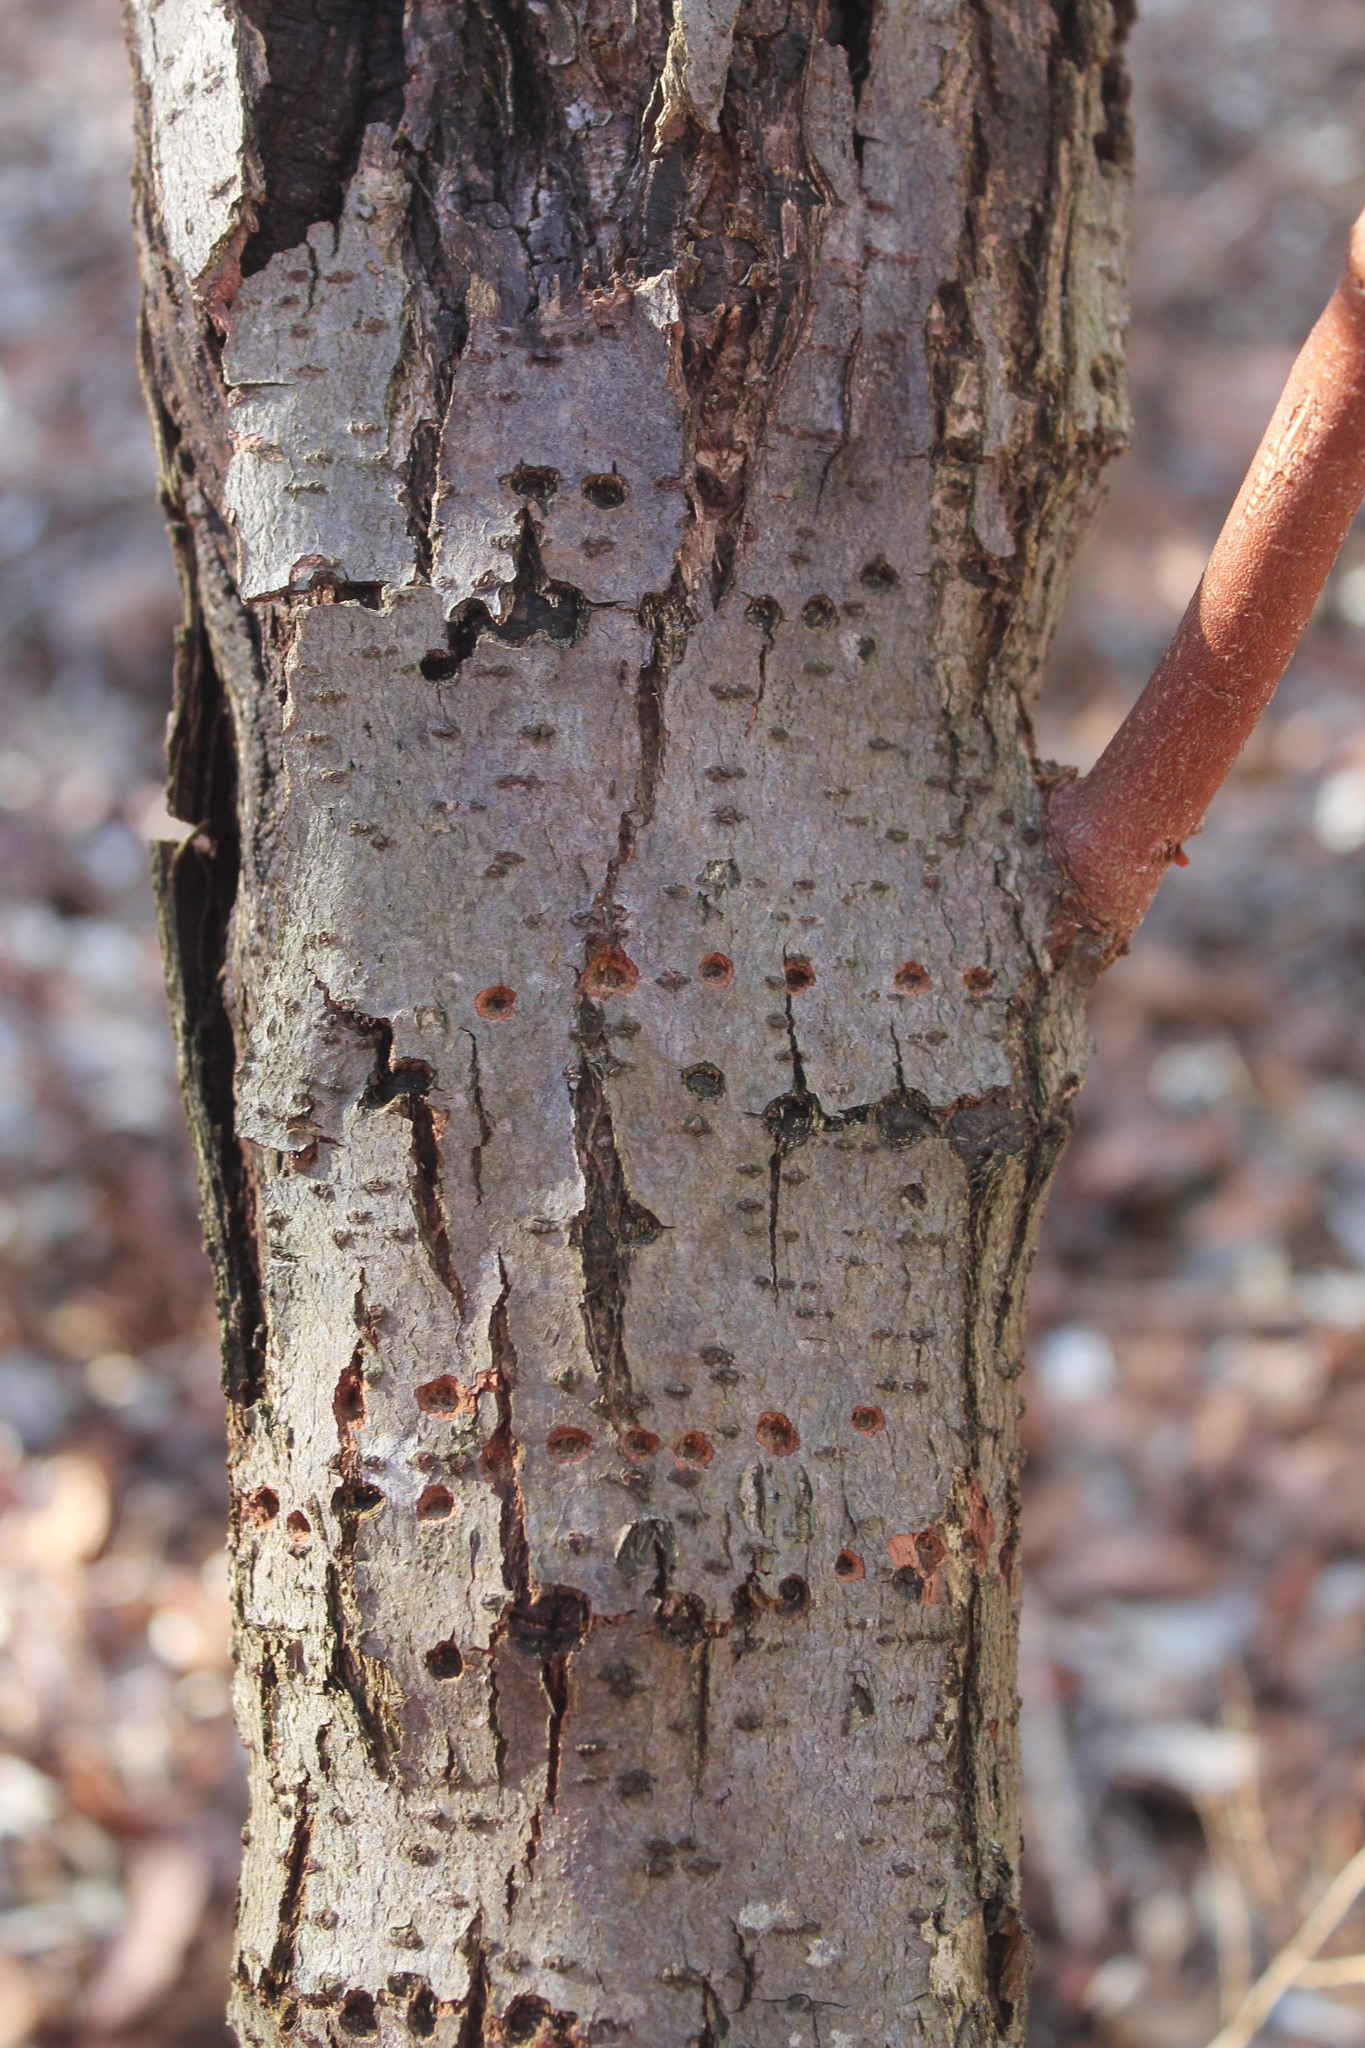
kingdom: Animalia
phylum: Chordata
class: Aves
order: Piciformes
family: Picidae
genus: Sphyrapicus
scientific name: Sphyrapicus varius
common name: Yellow-bellied sapsucker
